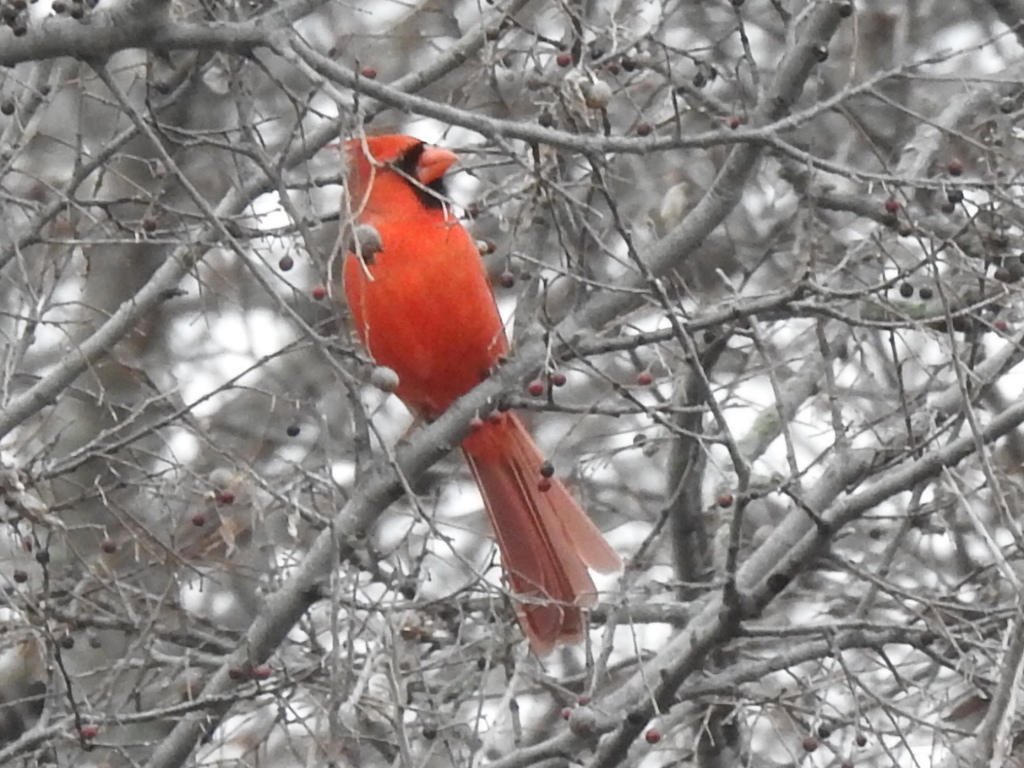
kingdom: Animalia
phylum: Chordata
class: Aves
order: Passeriformes
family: Cardinalidae
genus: Cardinalis
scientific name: Cardinalis cardinalis
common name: Northern cardinal
